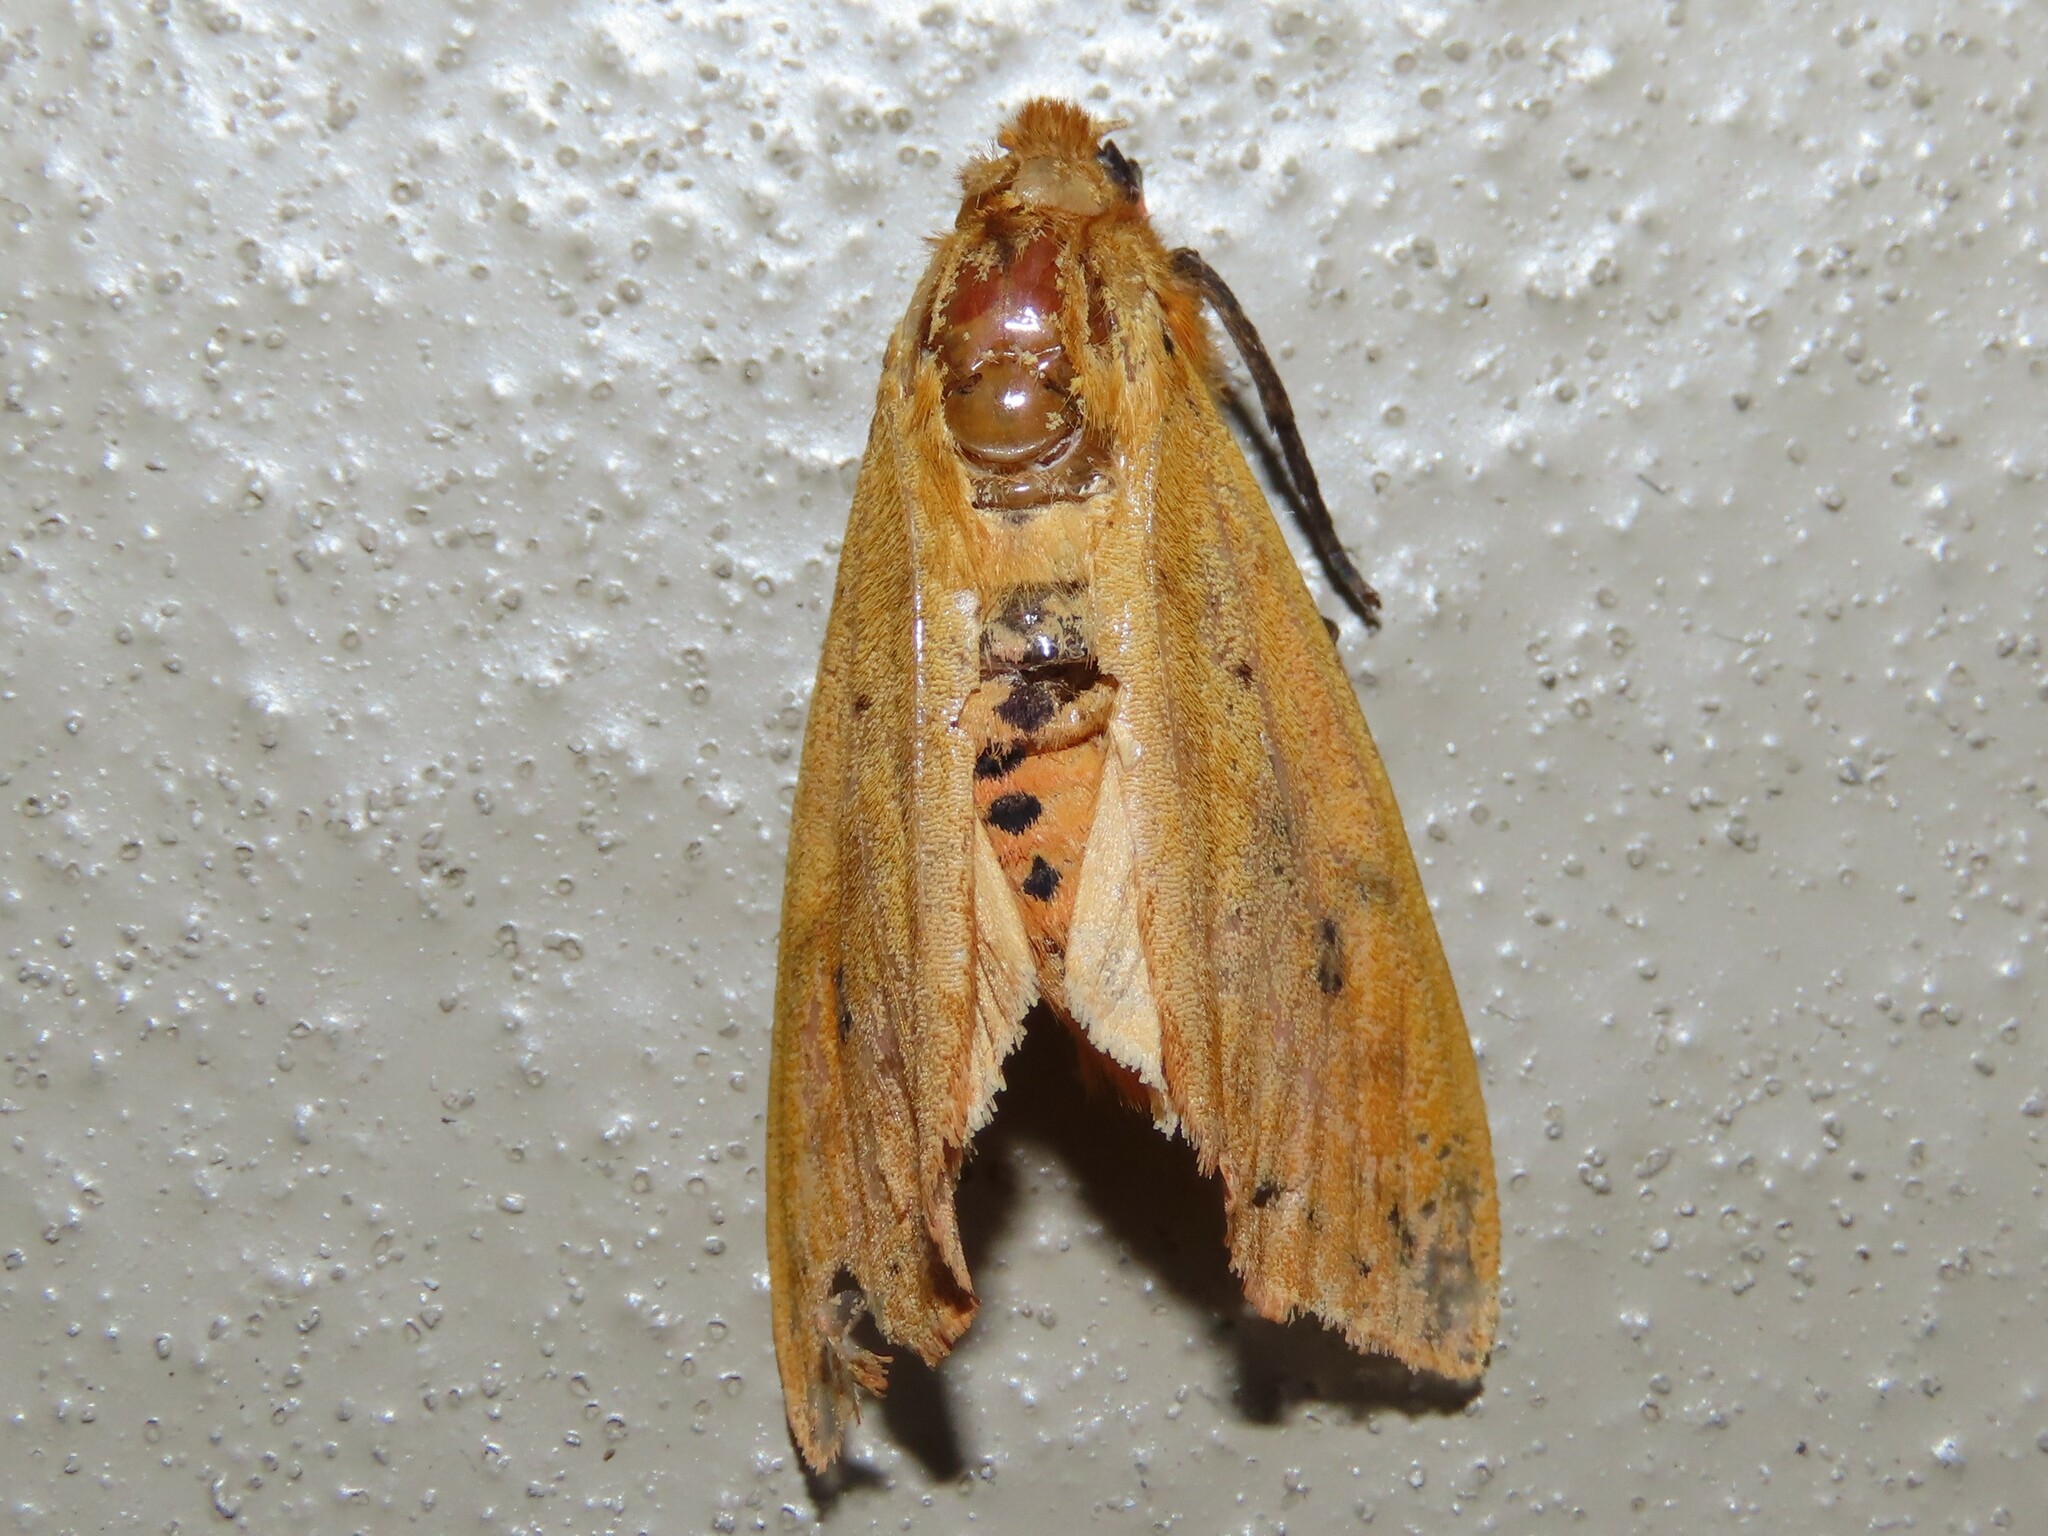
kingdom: Animalia
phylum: Arthropoda
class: Insecta
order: Lepidoptera
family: Erebidae
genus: Pyrrharctia
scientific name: Pyrrharctia isabella
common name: Isabella tiger moth
